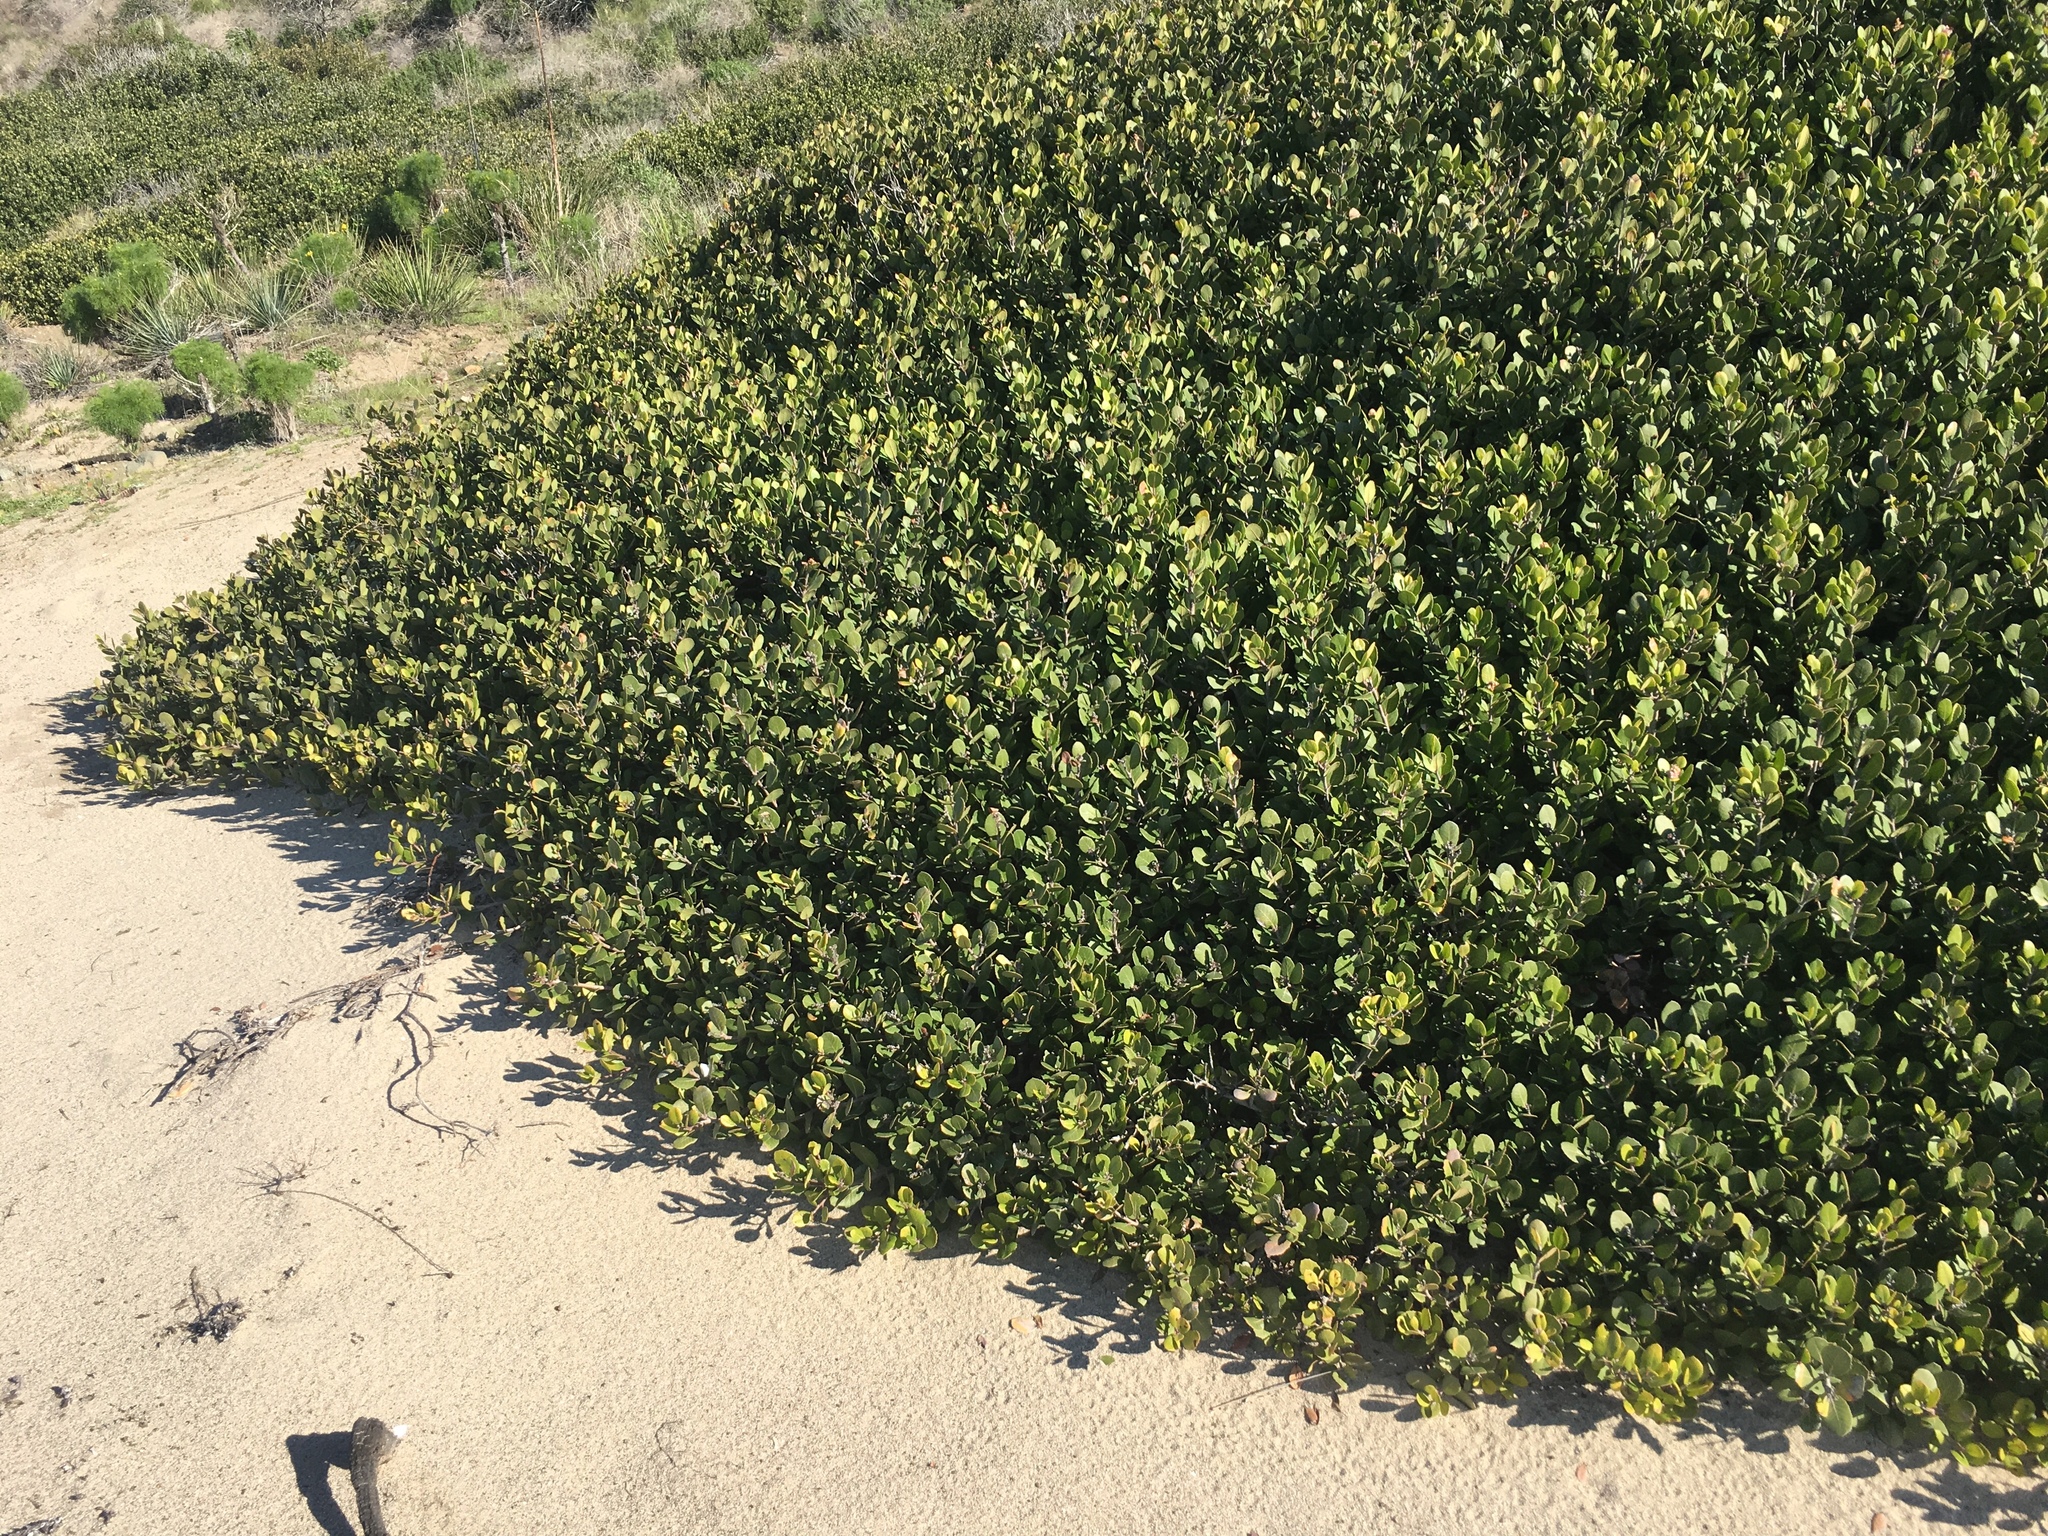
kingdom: Plantae
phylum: Tracheophyta
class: Magnoliopsida
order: Sapindales
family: Anacardiaceae
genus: Rhus
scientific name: Rhus integrifolia
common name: Lemonade sumac
